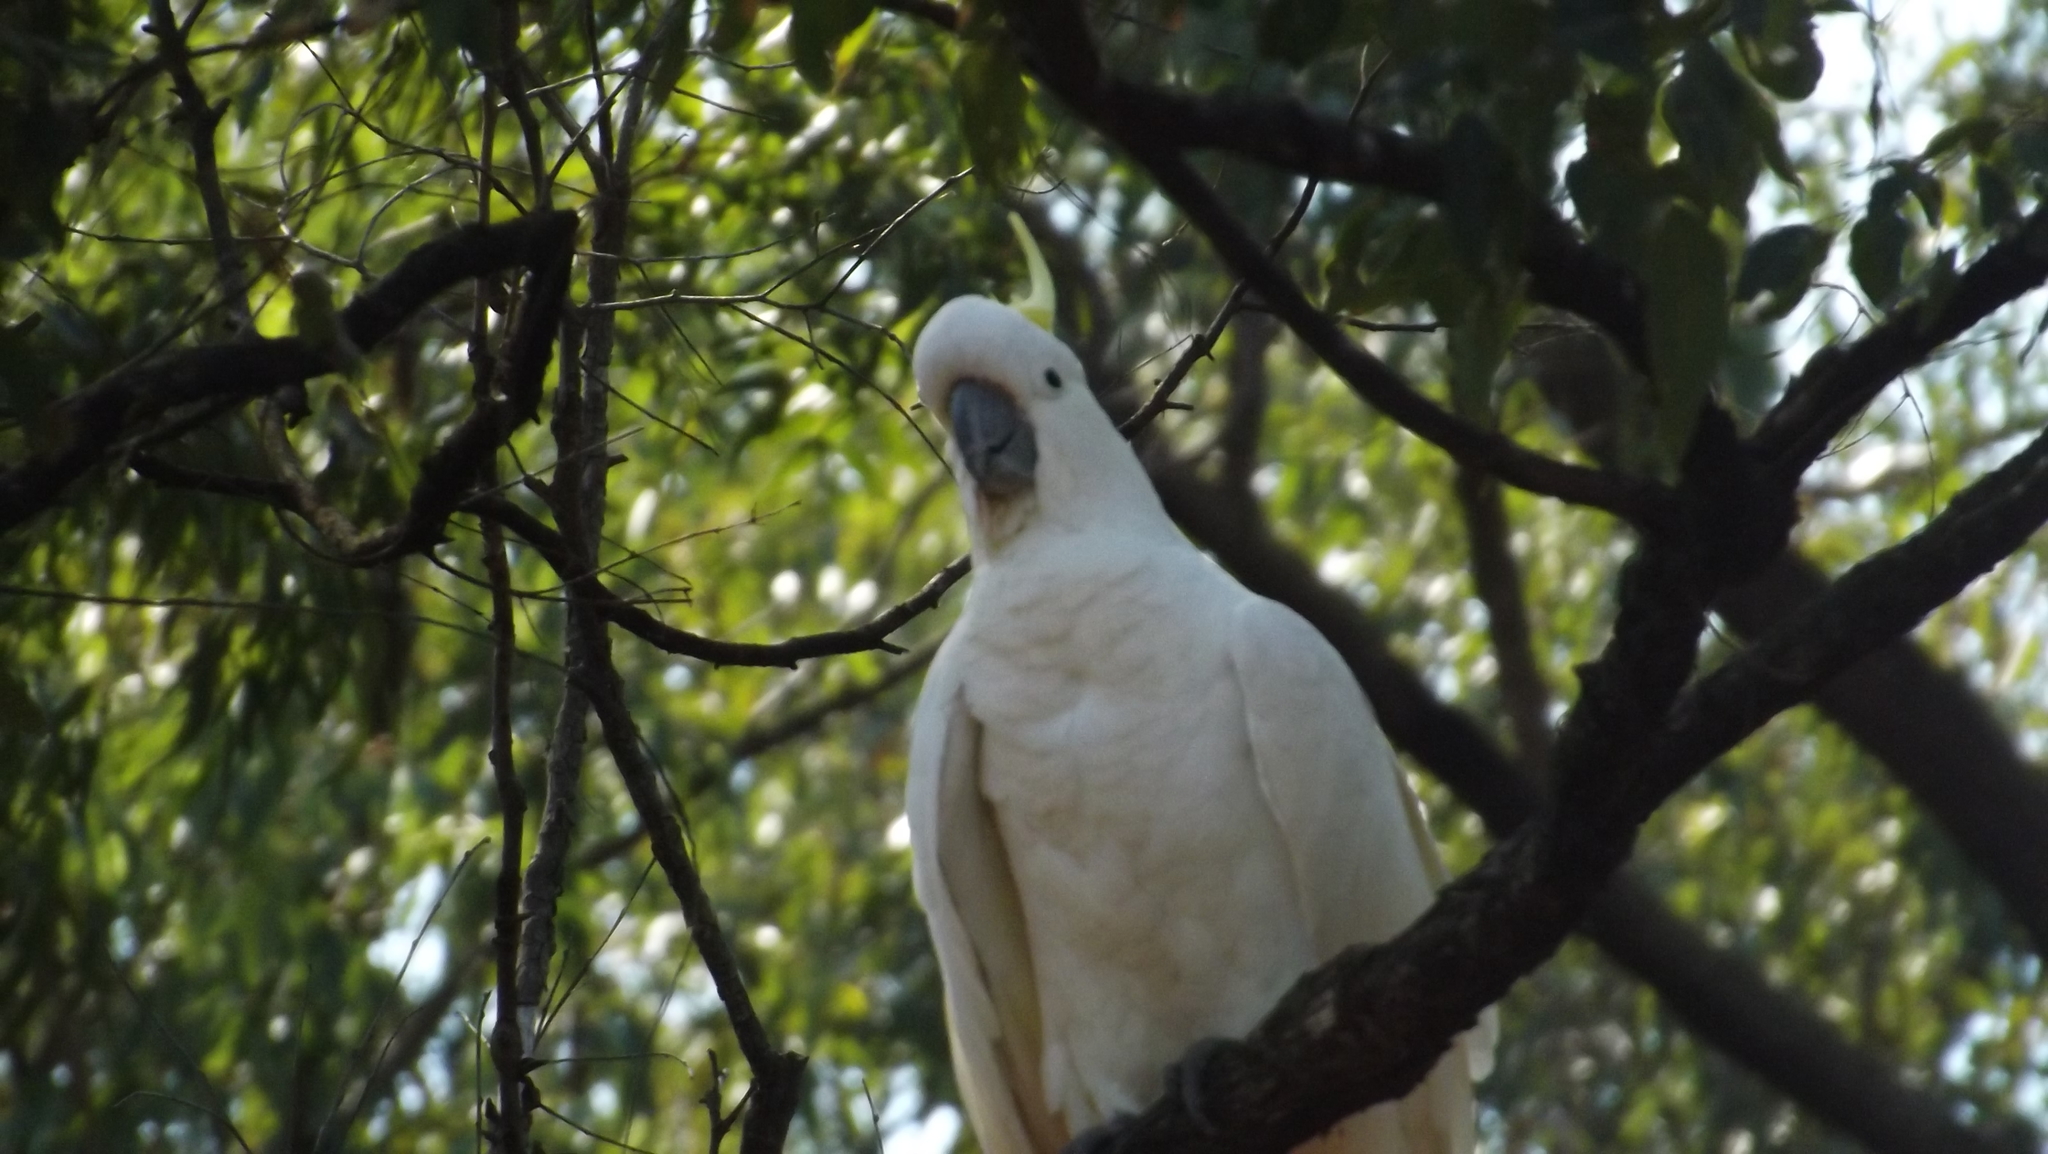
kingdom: Animalia
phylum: Chordata
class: Aves
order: Psittaciformes
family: Psittacidae
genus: Cacatua
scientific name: Cacatua galerita
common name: Sulphur-crested cockatoo
